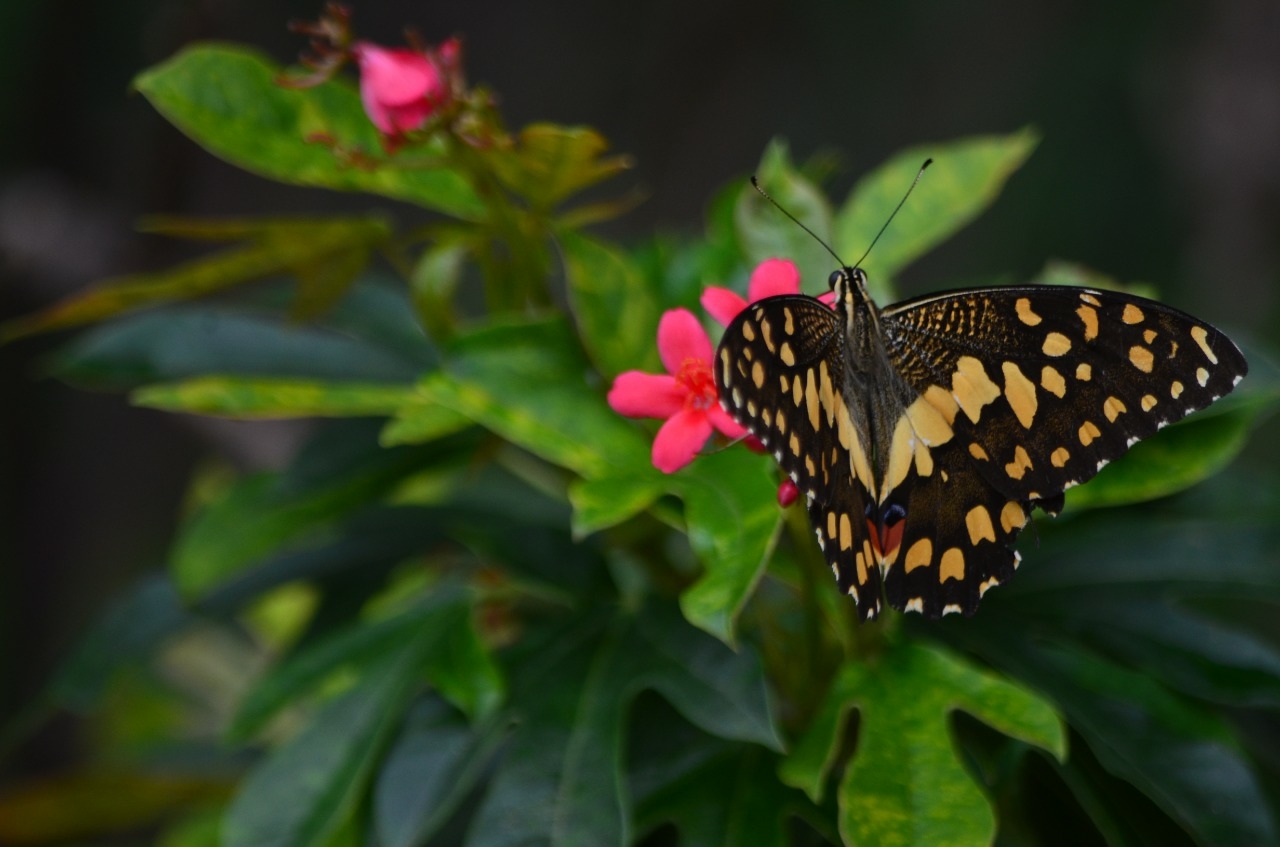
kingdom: Animalia
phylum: Arthropoda
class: Insecta
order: Lepidoptera
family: Papilionidae
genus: Papilio
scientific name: Papilio demoleus
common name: Lime butterfly
